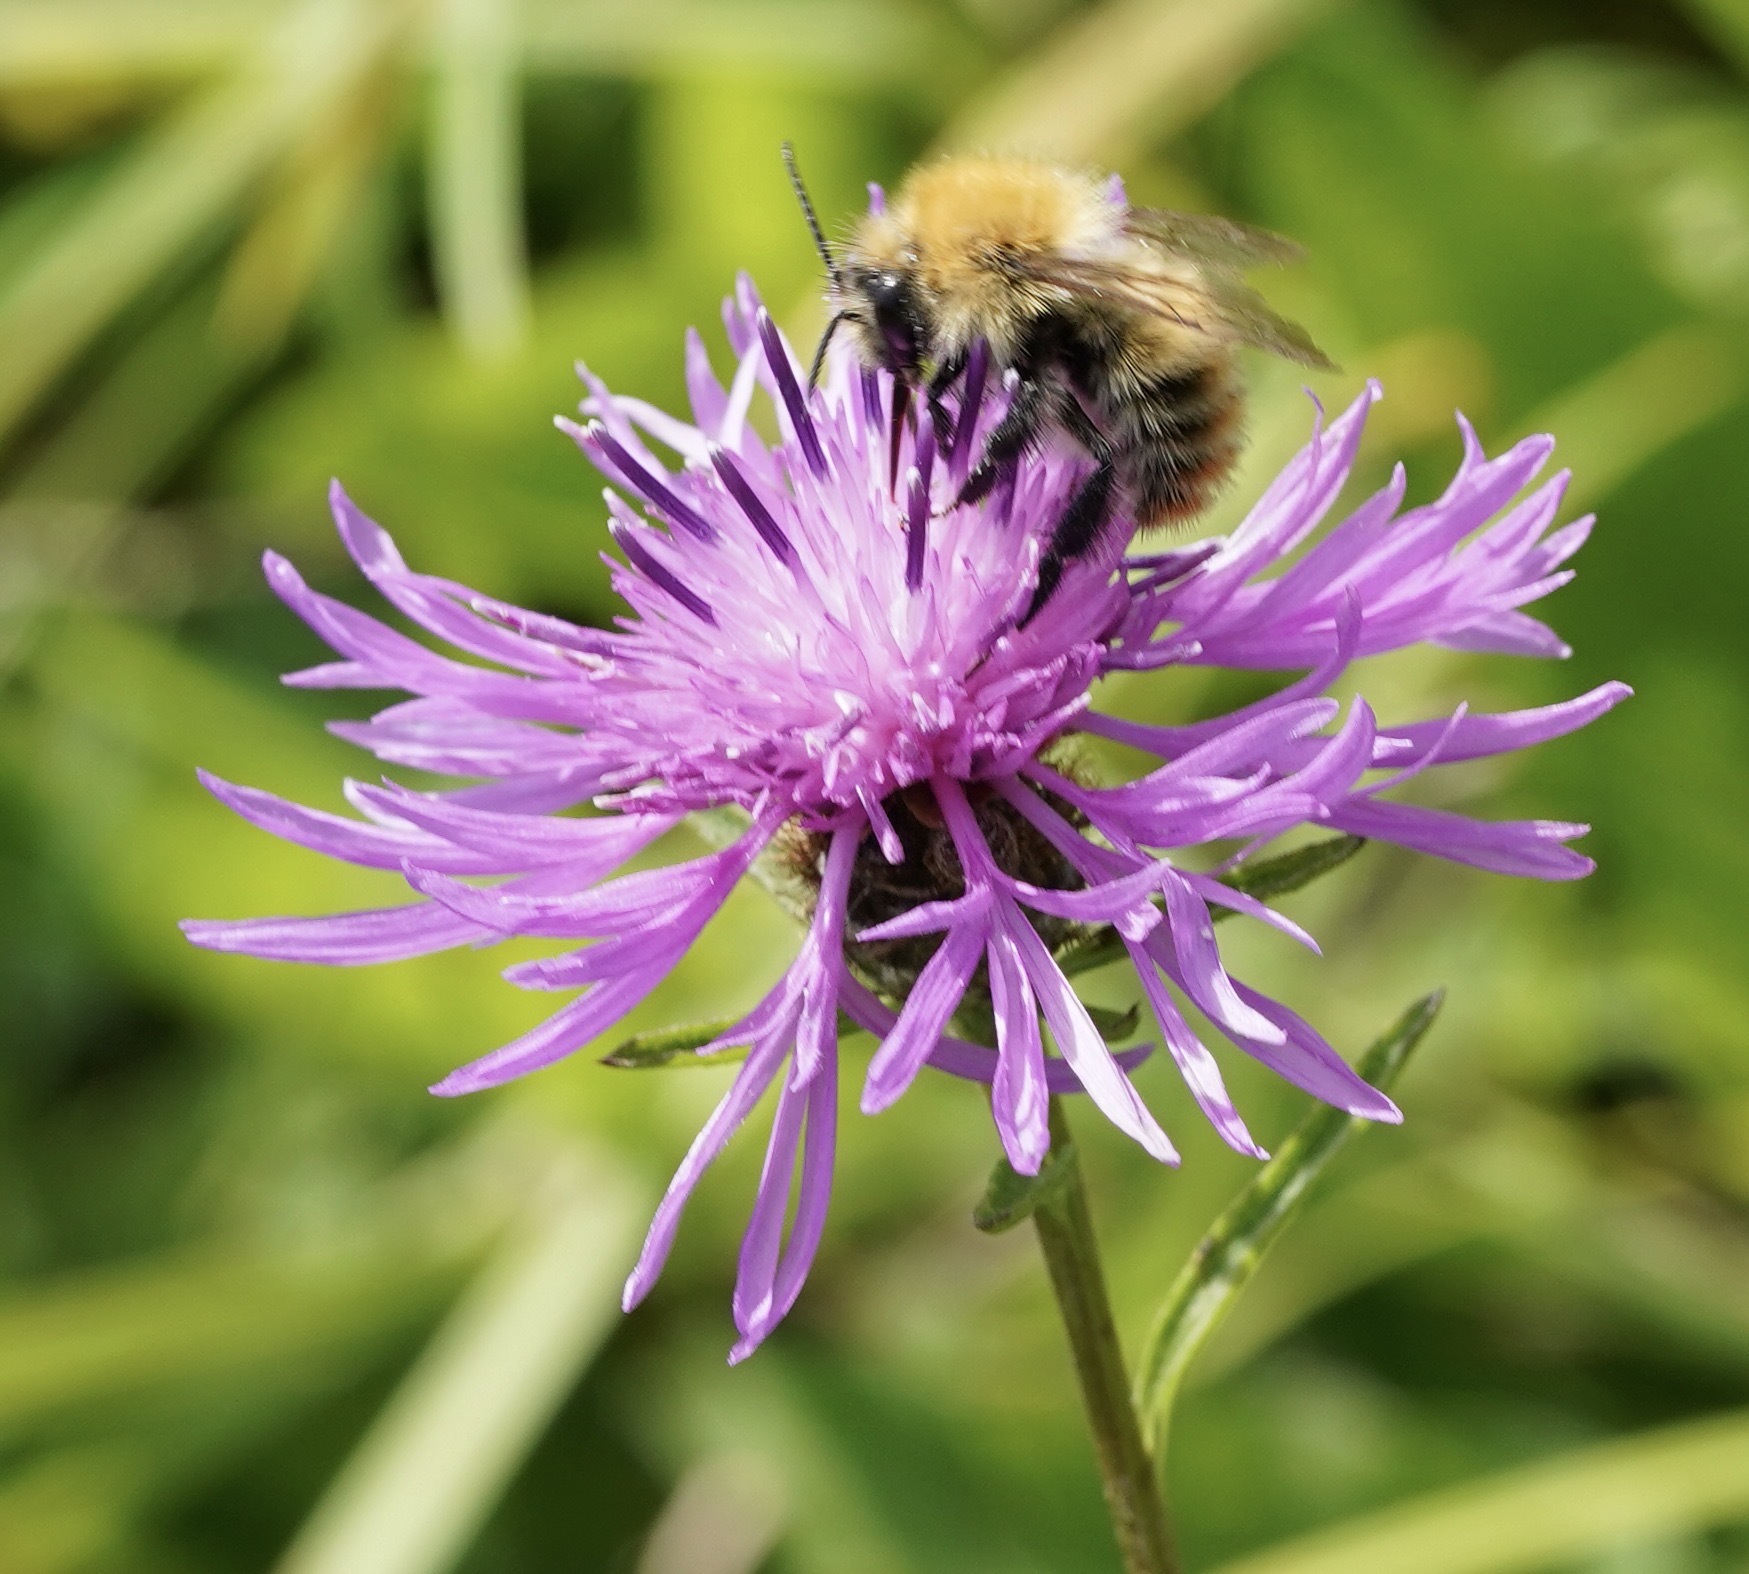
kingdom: Animalia
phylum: Arthropoda
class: Insecta
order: Hymenoptera
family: Apidae
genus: Bombus
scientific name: Bombus pascuorum
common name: Common carder bee
